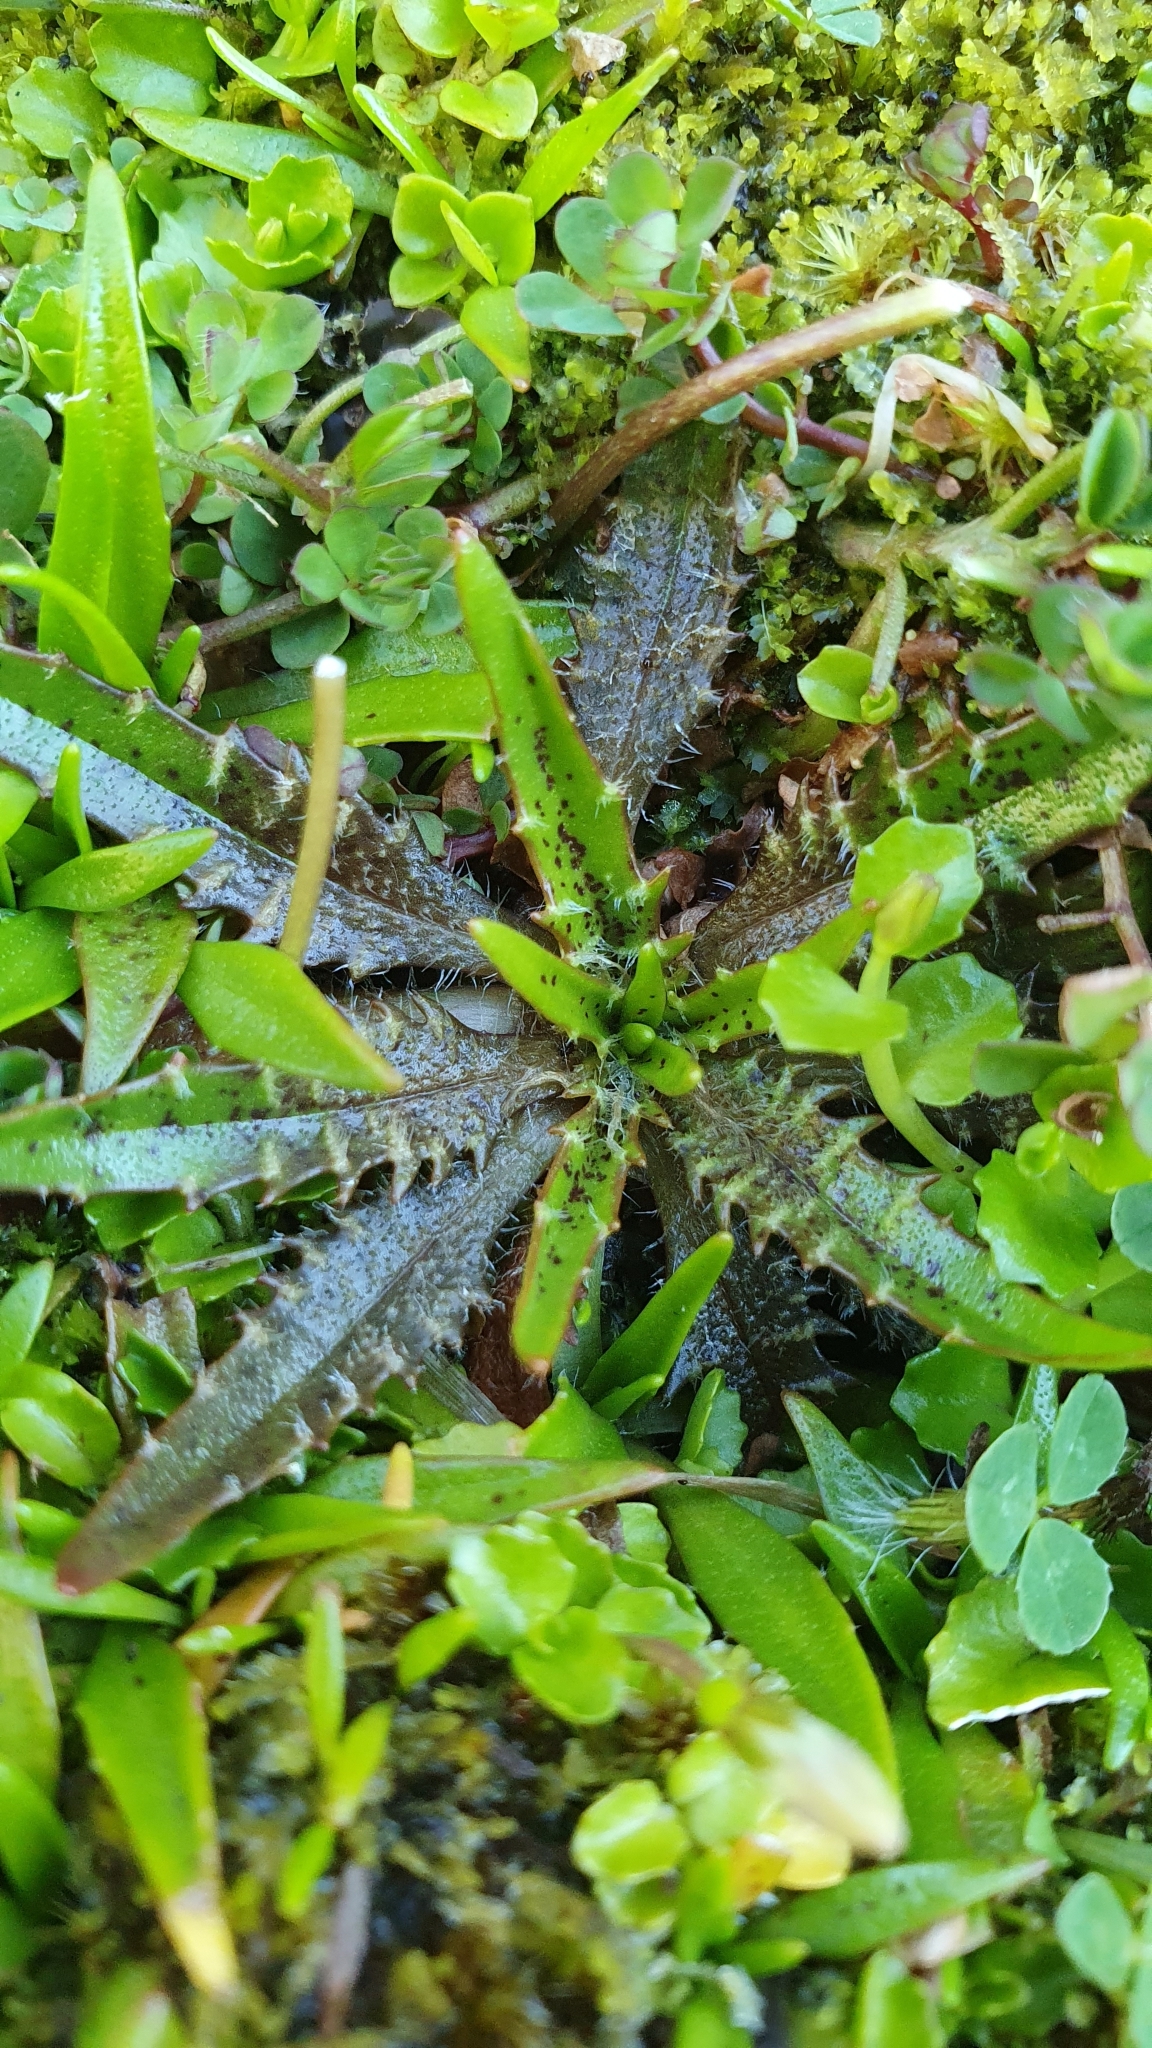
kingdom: Plantae
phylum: Tracheophyta
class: Magnoliopsida
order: Lamiales
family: Plantaginaceae
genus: Plantago
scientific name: Plantago triandra
